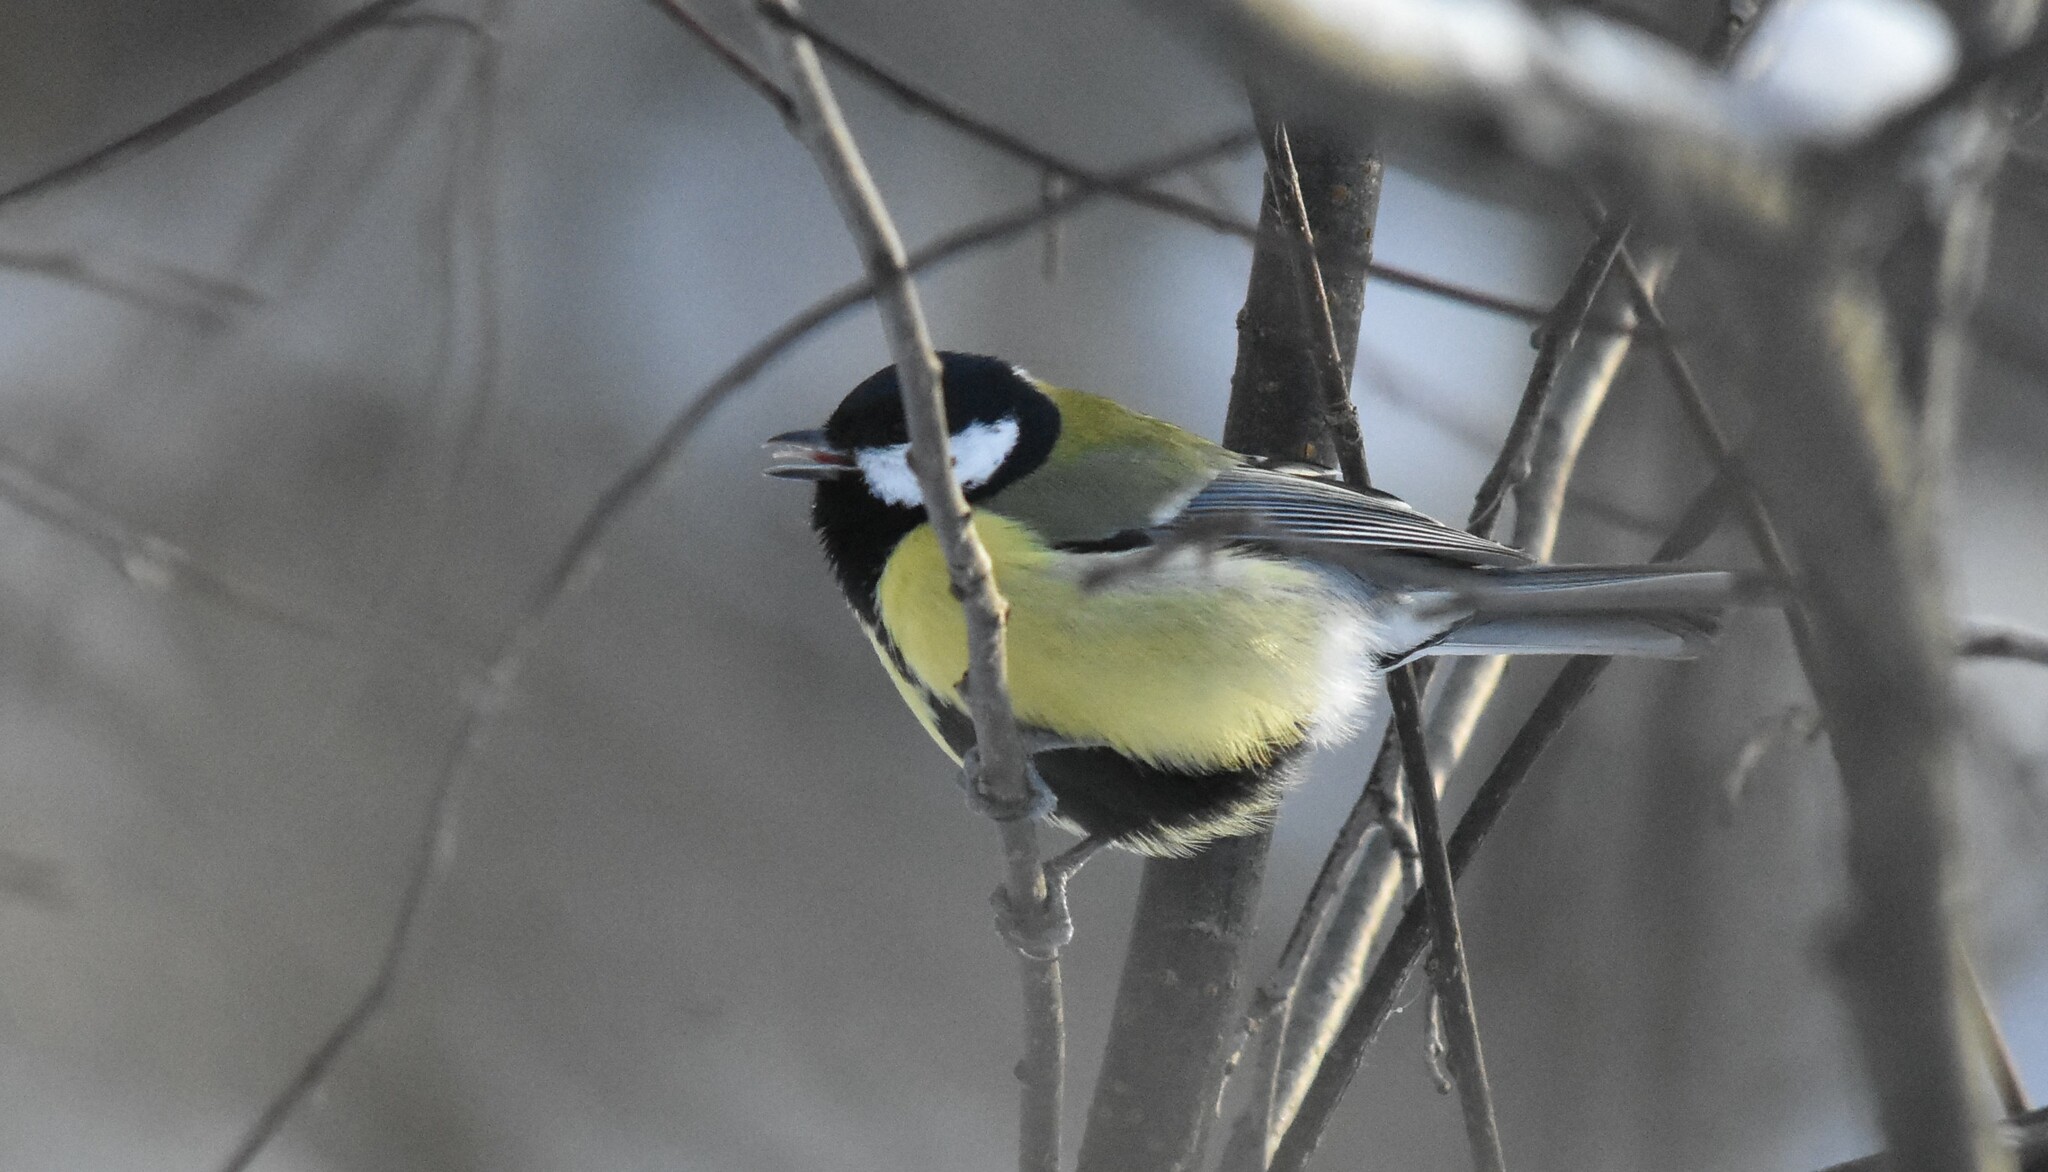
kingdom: Animalia
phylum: Chordata
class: Aves
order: Passeriformes
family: Paridae
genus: Parus
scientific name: Parus major
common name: Great tit
